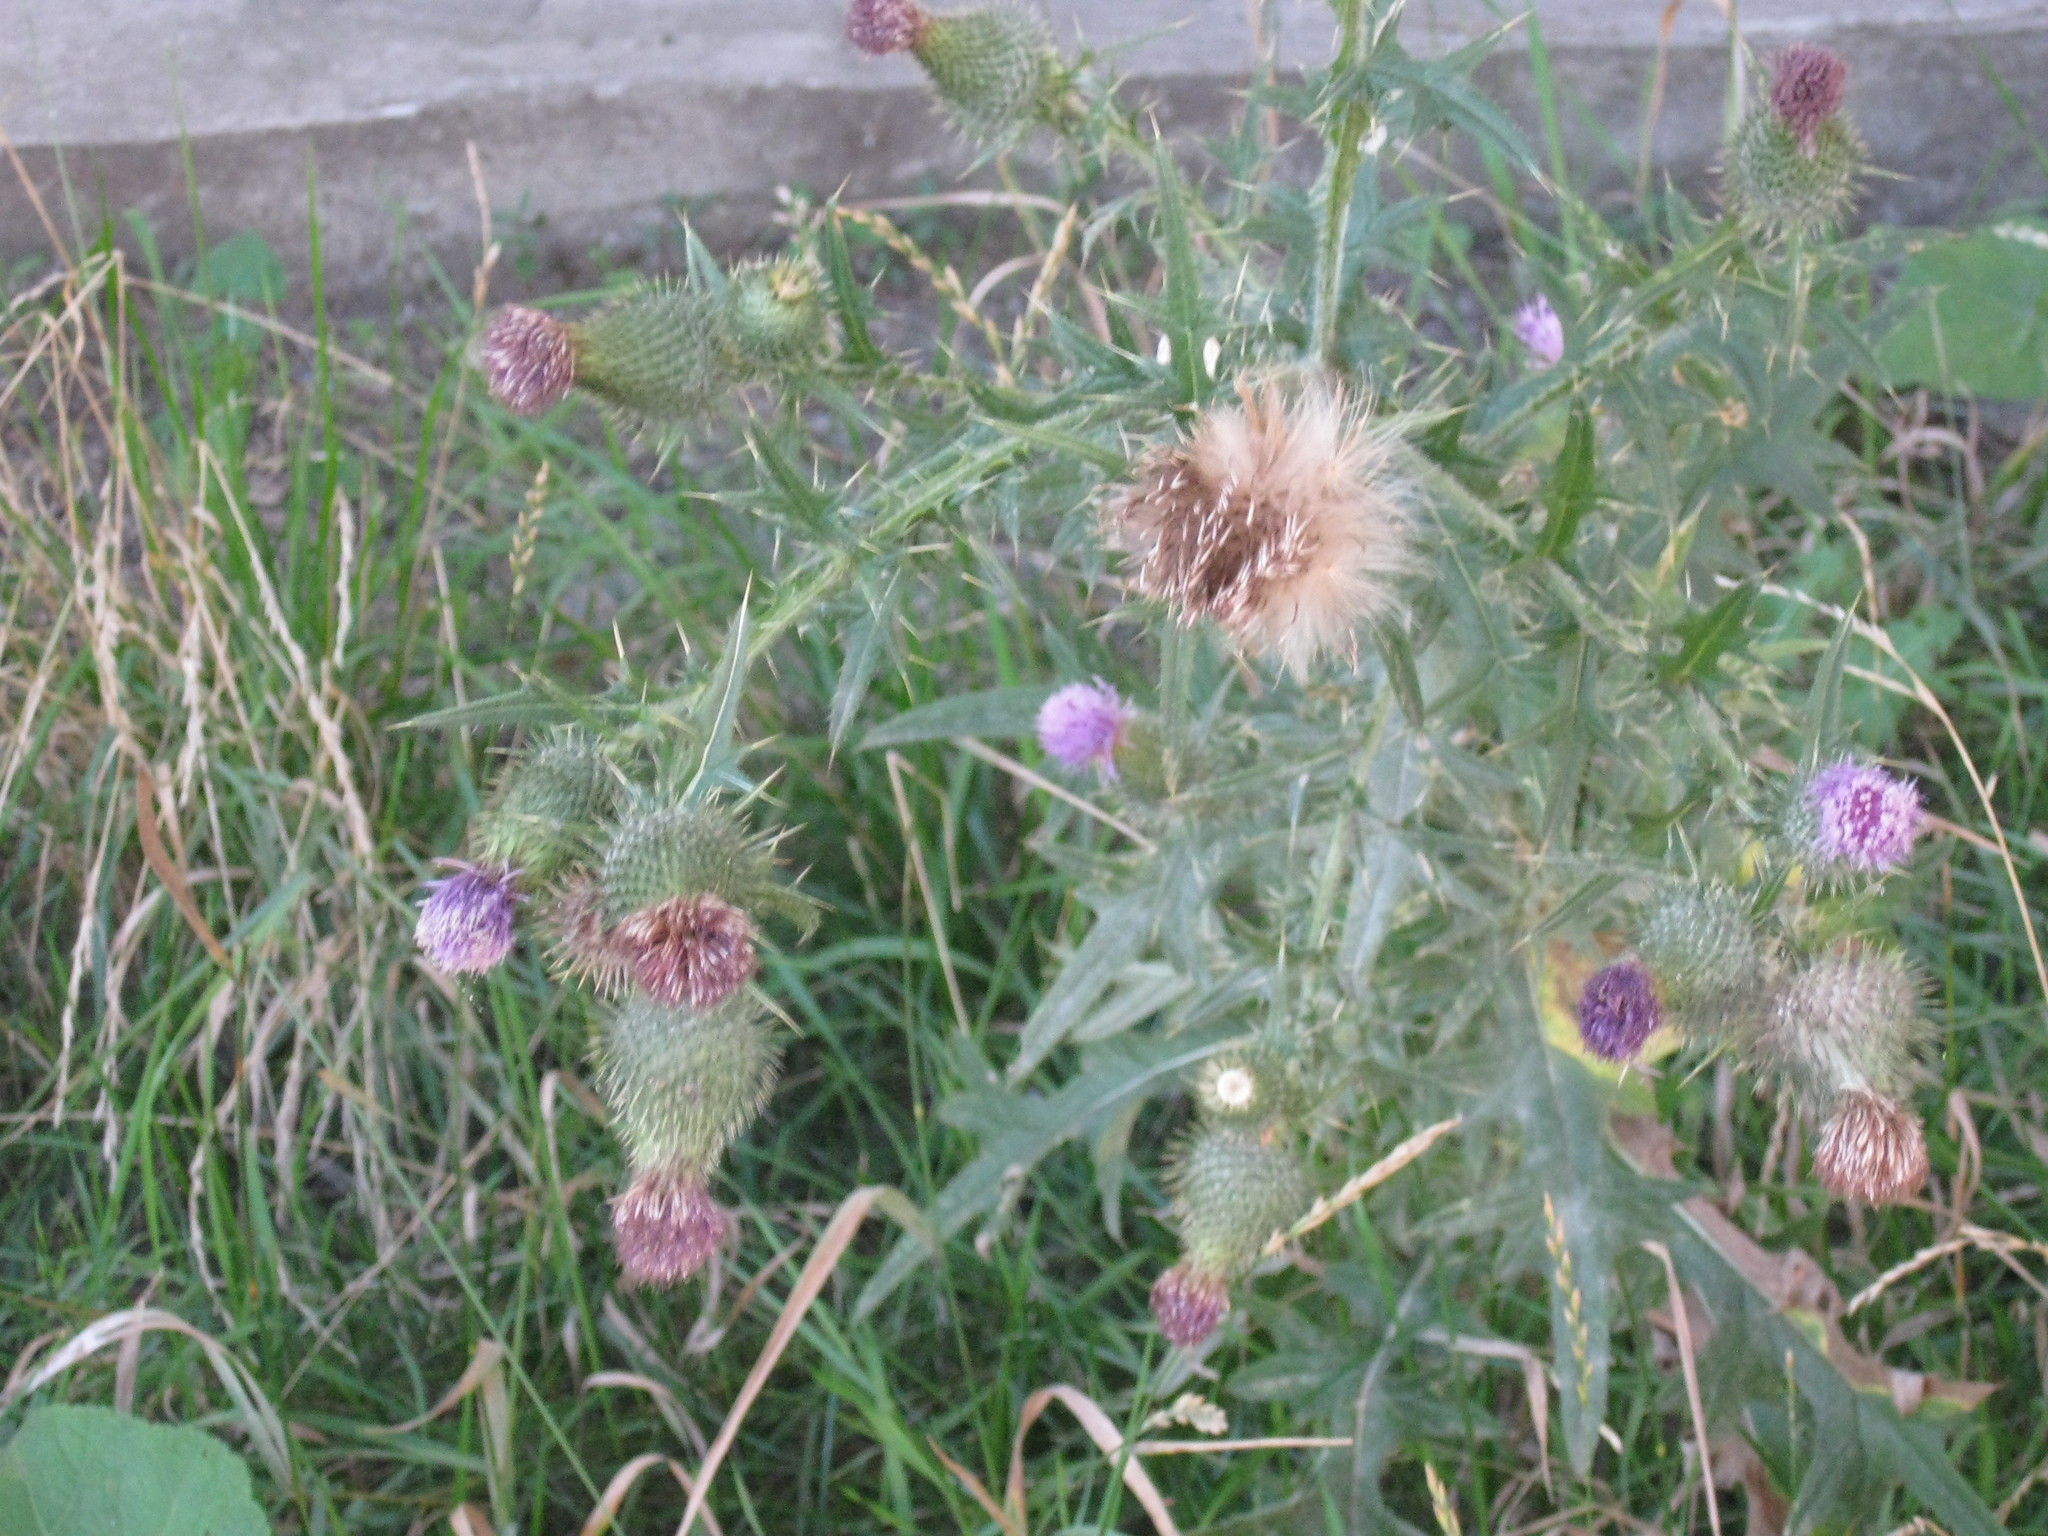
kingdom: Plantae
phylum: Tracheophyta
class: Magnoliopsida
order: Asterales
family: Asteraceae
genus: Cirsium
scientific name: Cirsium serrulatum
